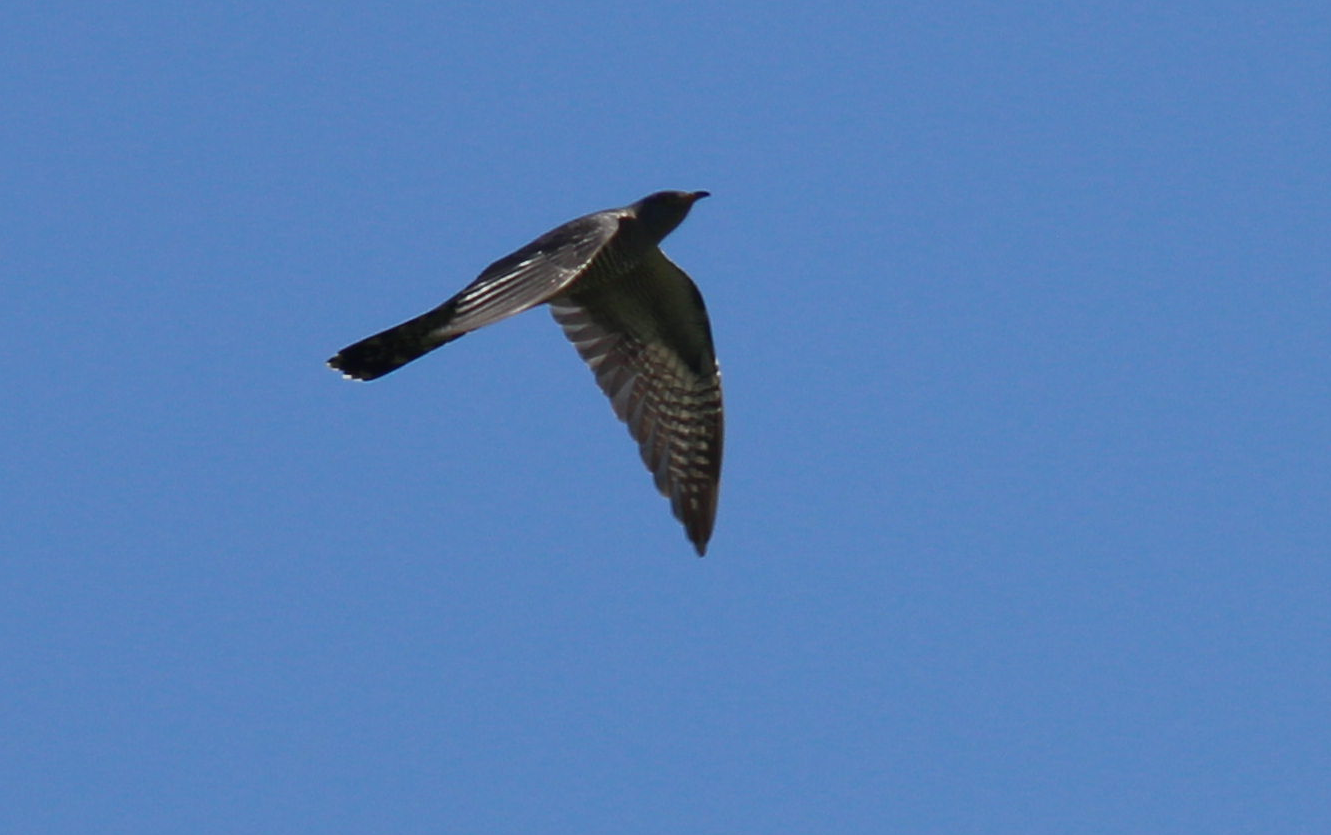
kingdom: Animalia
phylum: Chordata
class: Aves
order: Cuculiformes
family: Cuculidae
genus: Cuculus
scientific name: Cuculus canorus
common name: Common cuckoo
